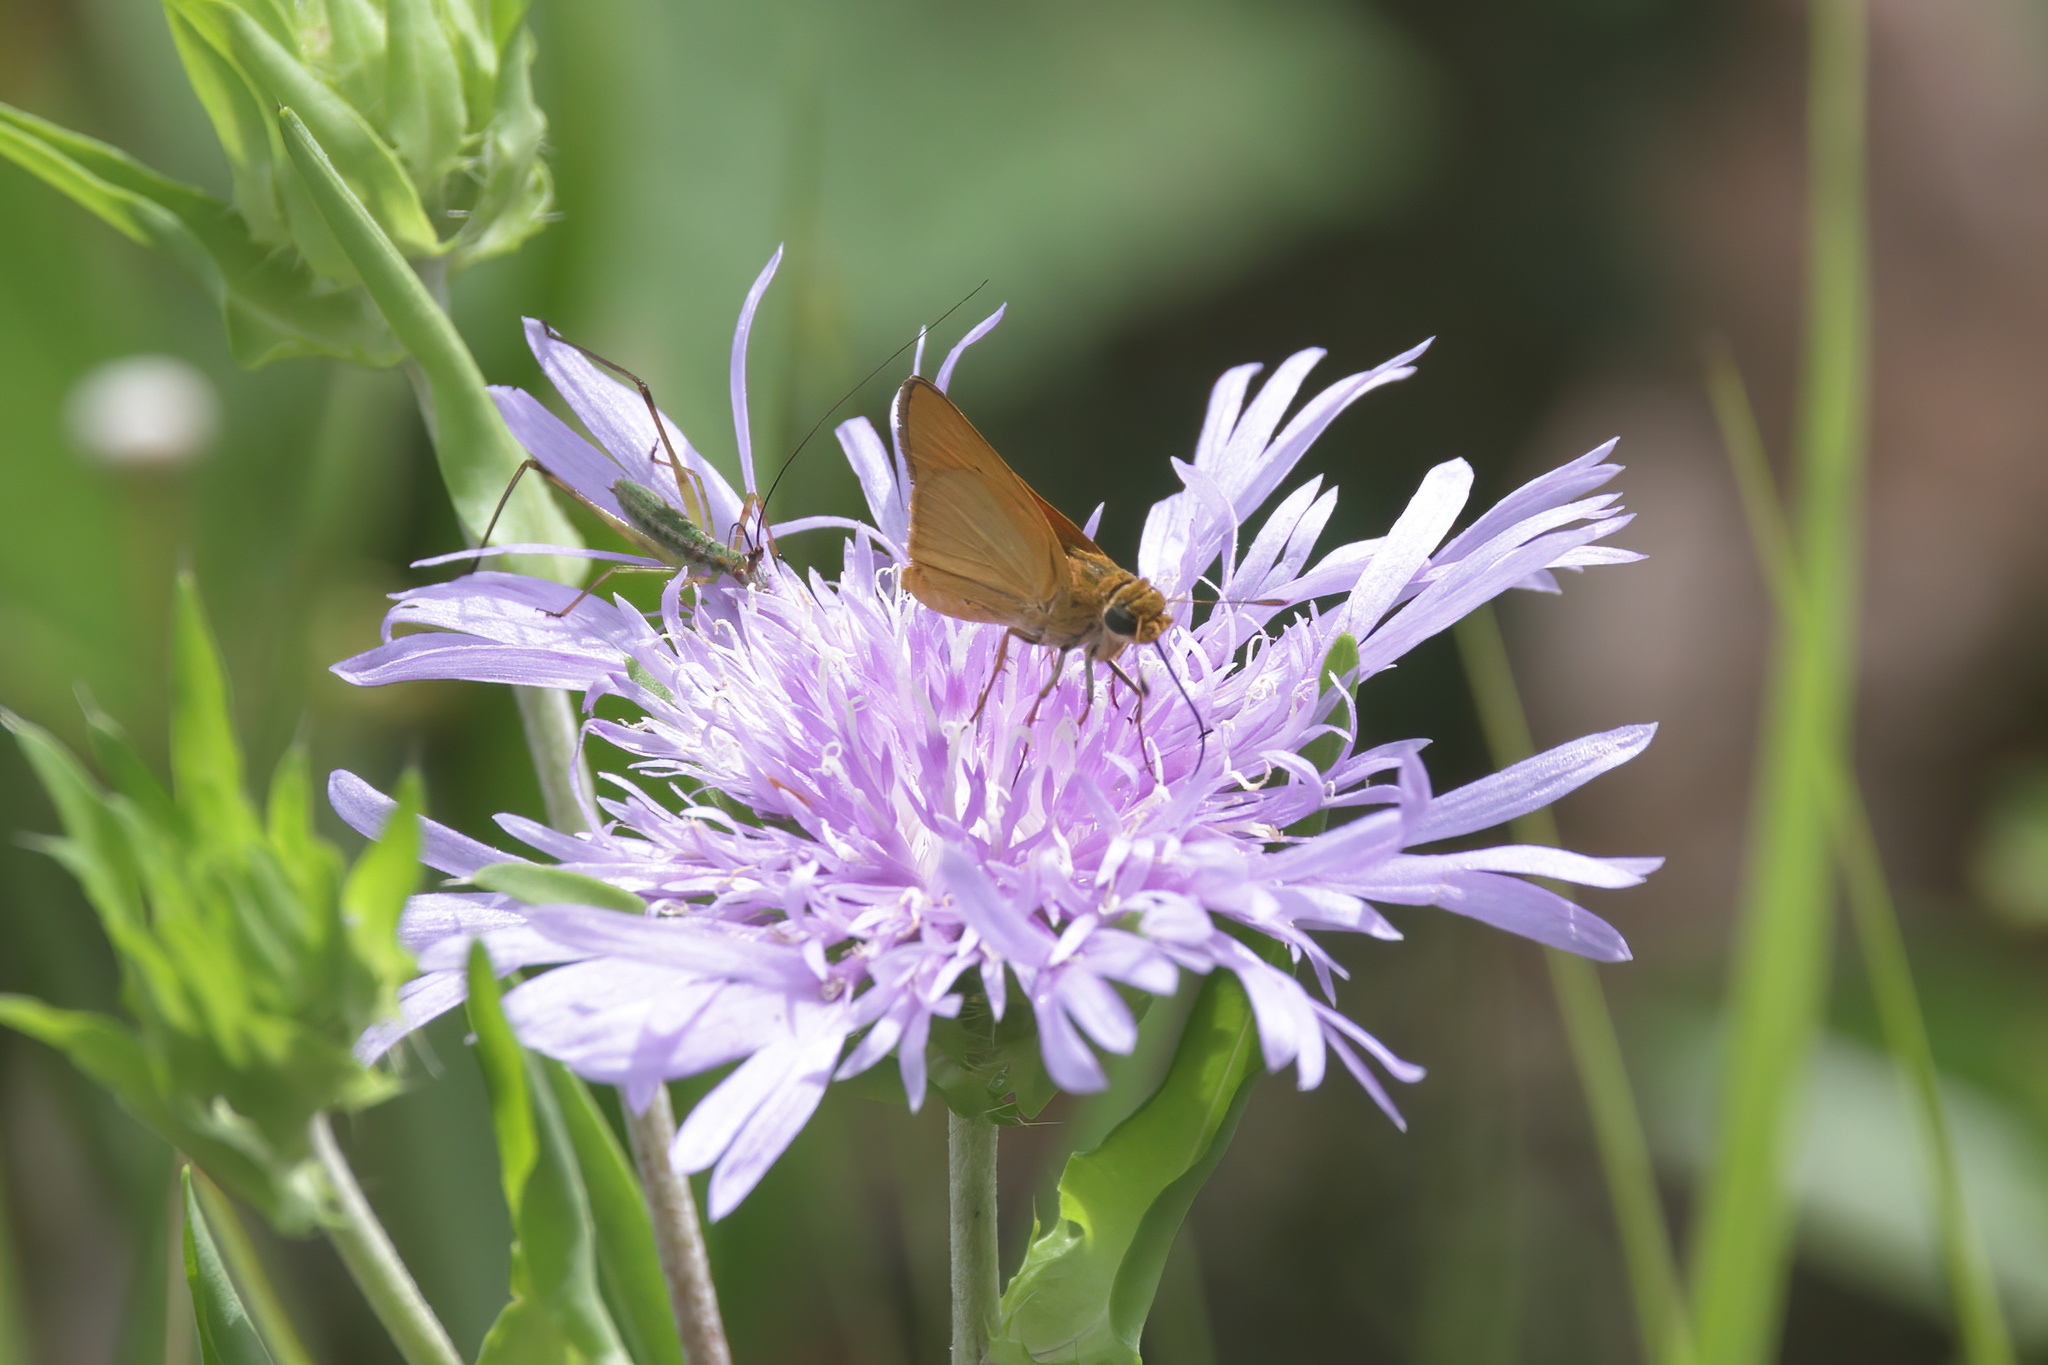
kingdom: Plantae
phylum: Tracheophyta
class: Magnoliopsida
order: Asterales
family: Asteraceae
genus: Stokesia
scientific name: Stokesia laevis
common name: Stokes'-aster
